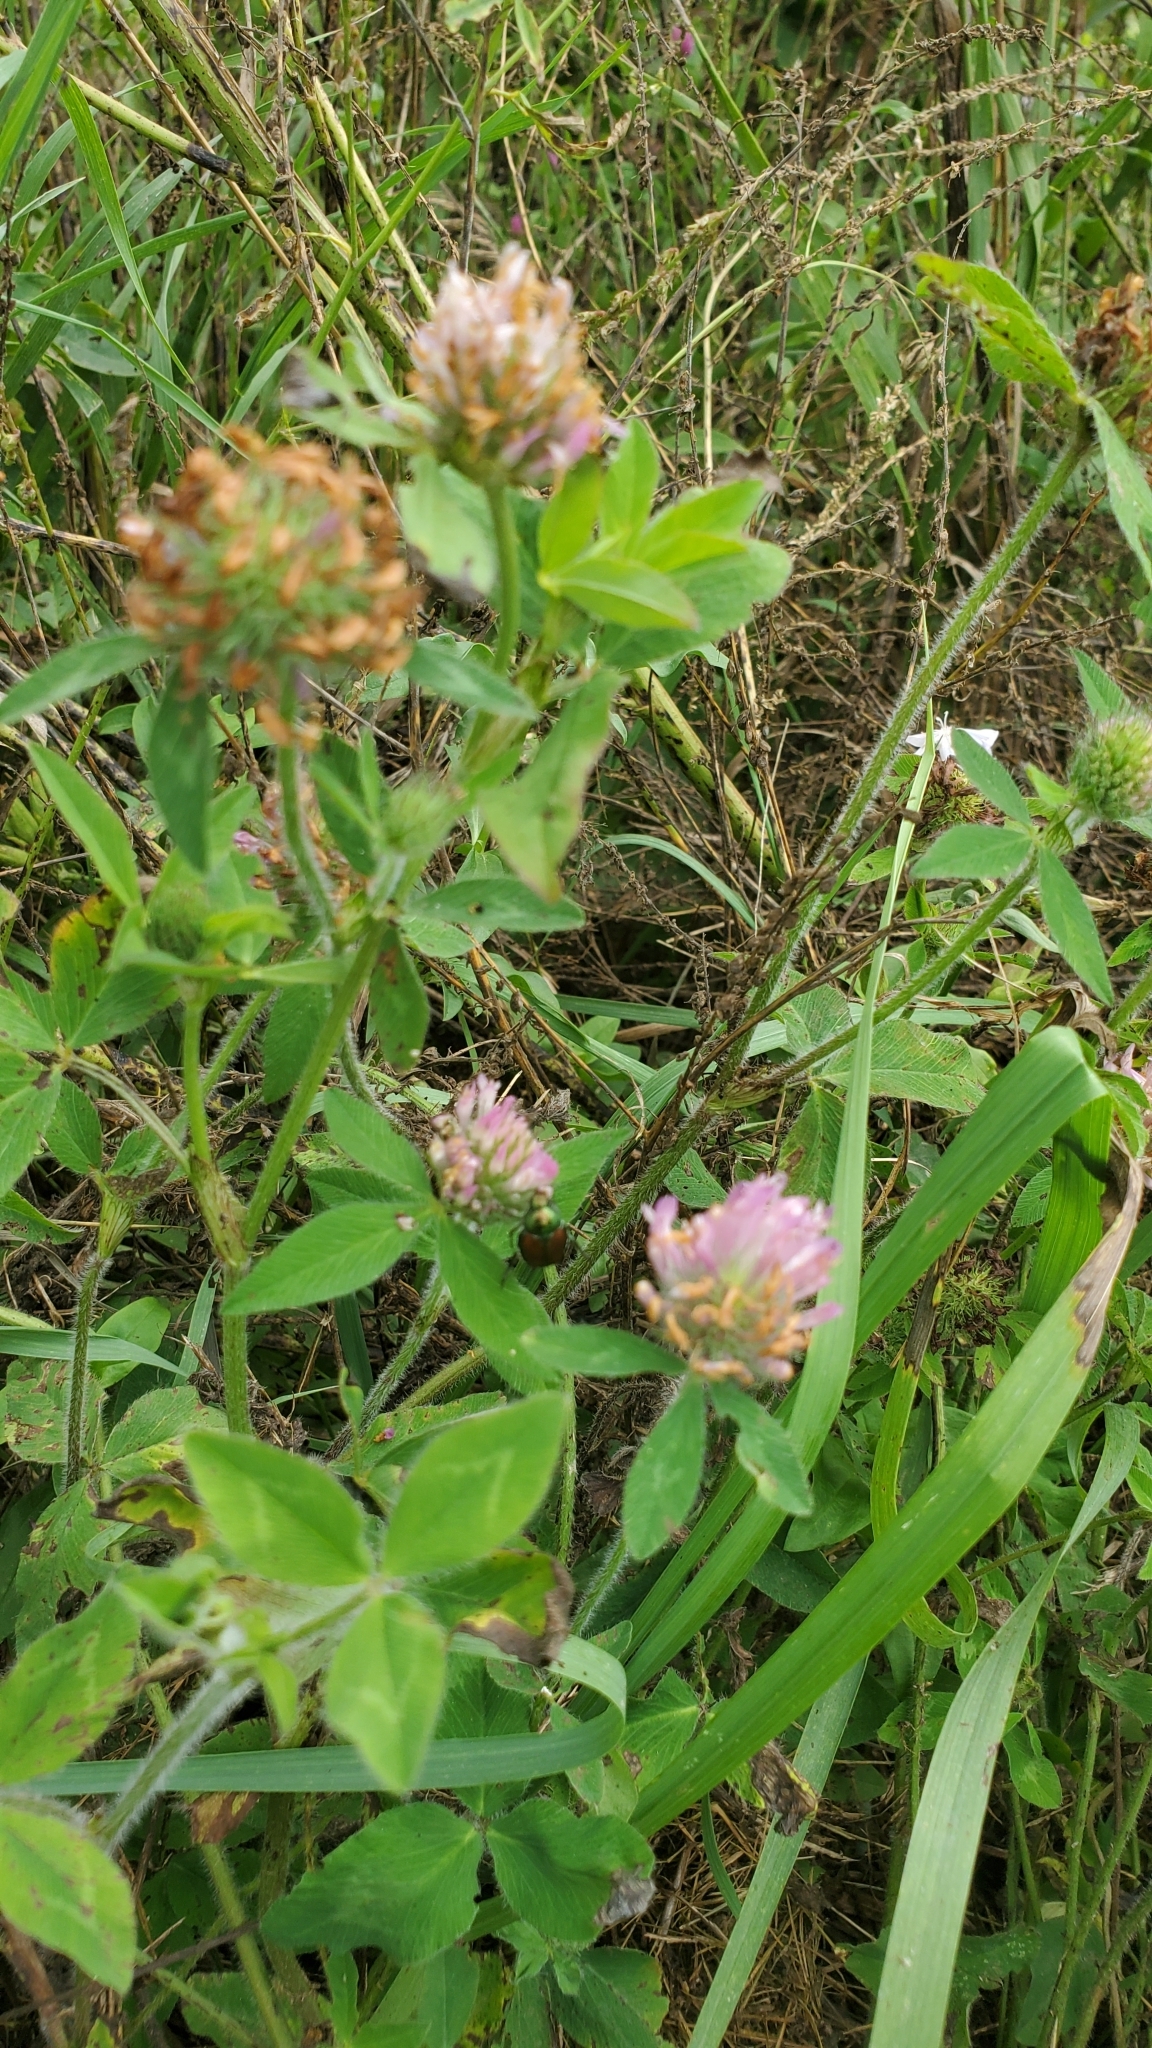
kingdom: Plantae
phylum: Tracheophyta
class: Magnoliopsida
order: Fabales
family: Fabaceae
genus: Trifolium
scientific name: Trifolium pratense
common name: Red clover
